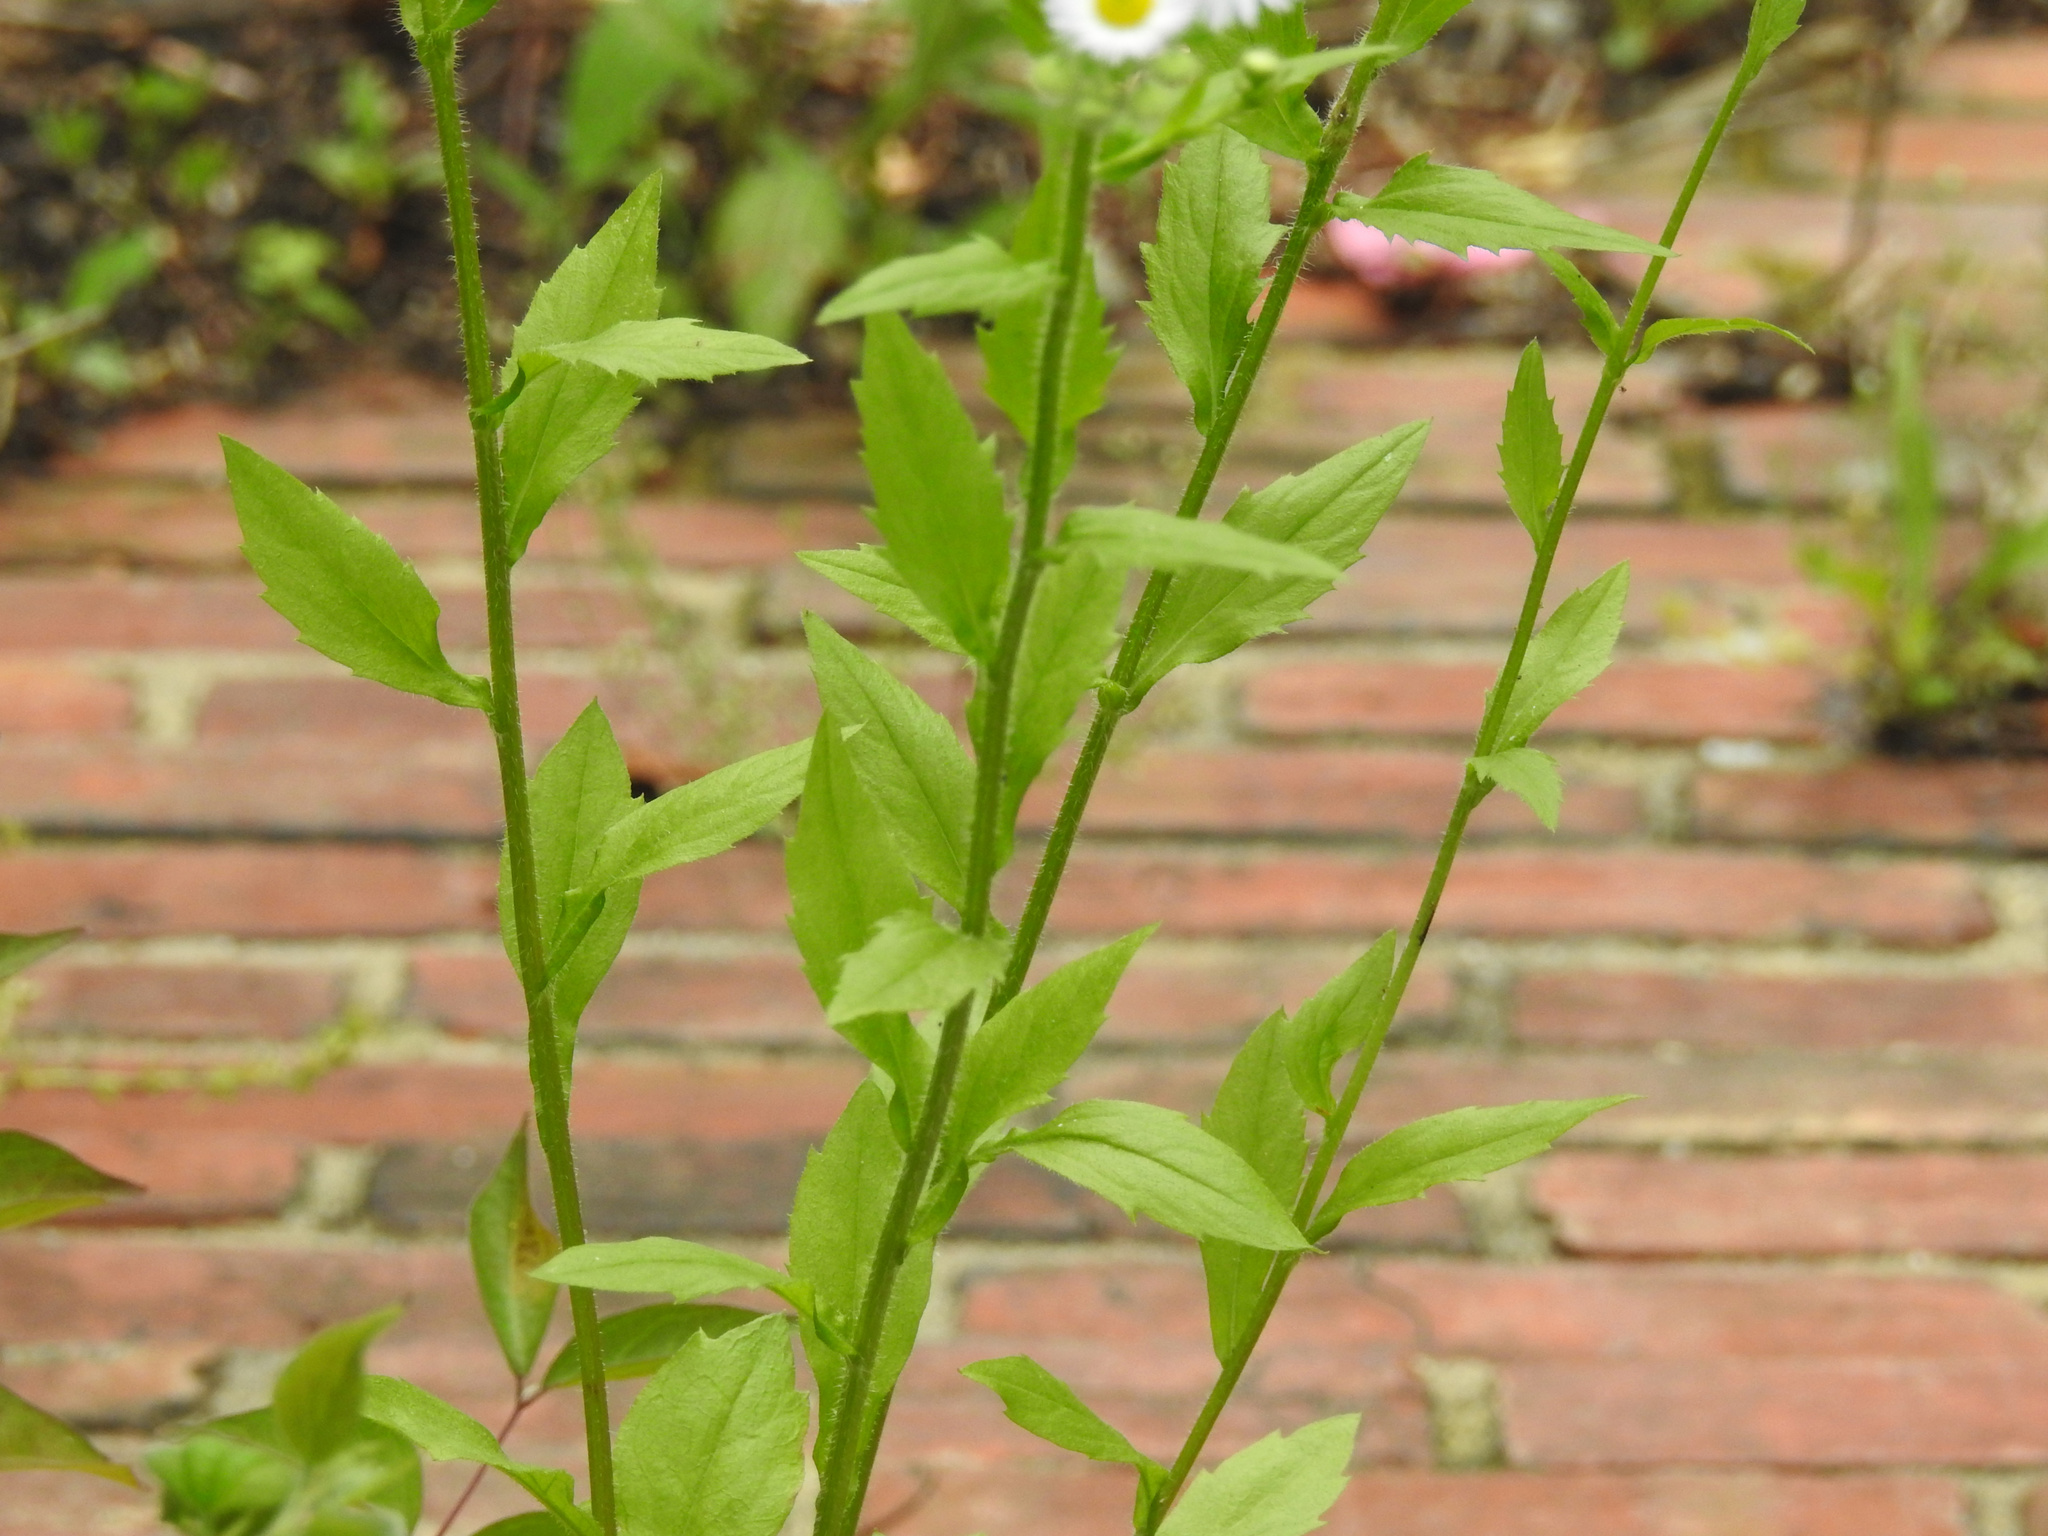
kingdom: Plantae
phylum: Tracheophyta
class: Magnoliopsida
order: Asterales
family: Asteraceae
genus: Erigeron
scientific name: Erigeron annuus
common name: Tall fleabane
